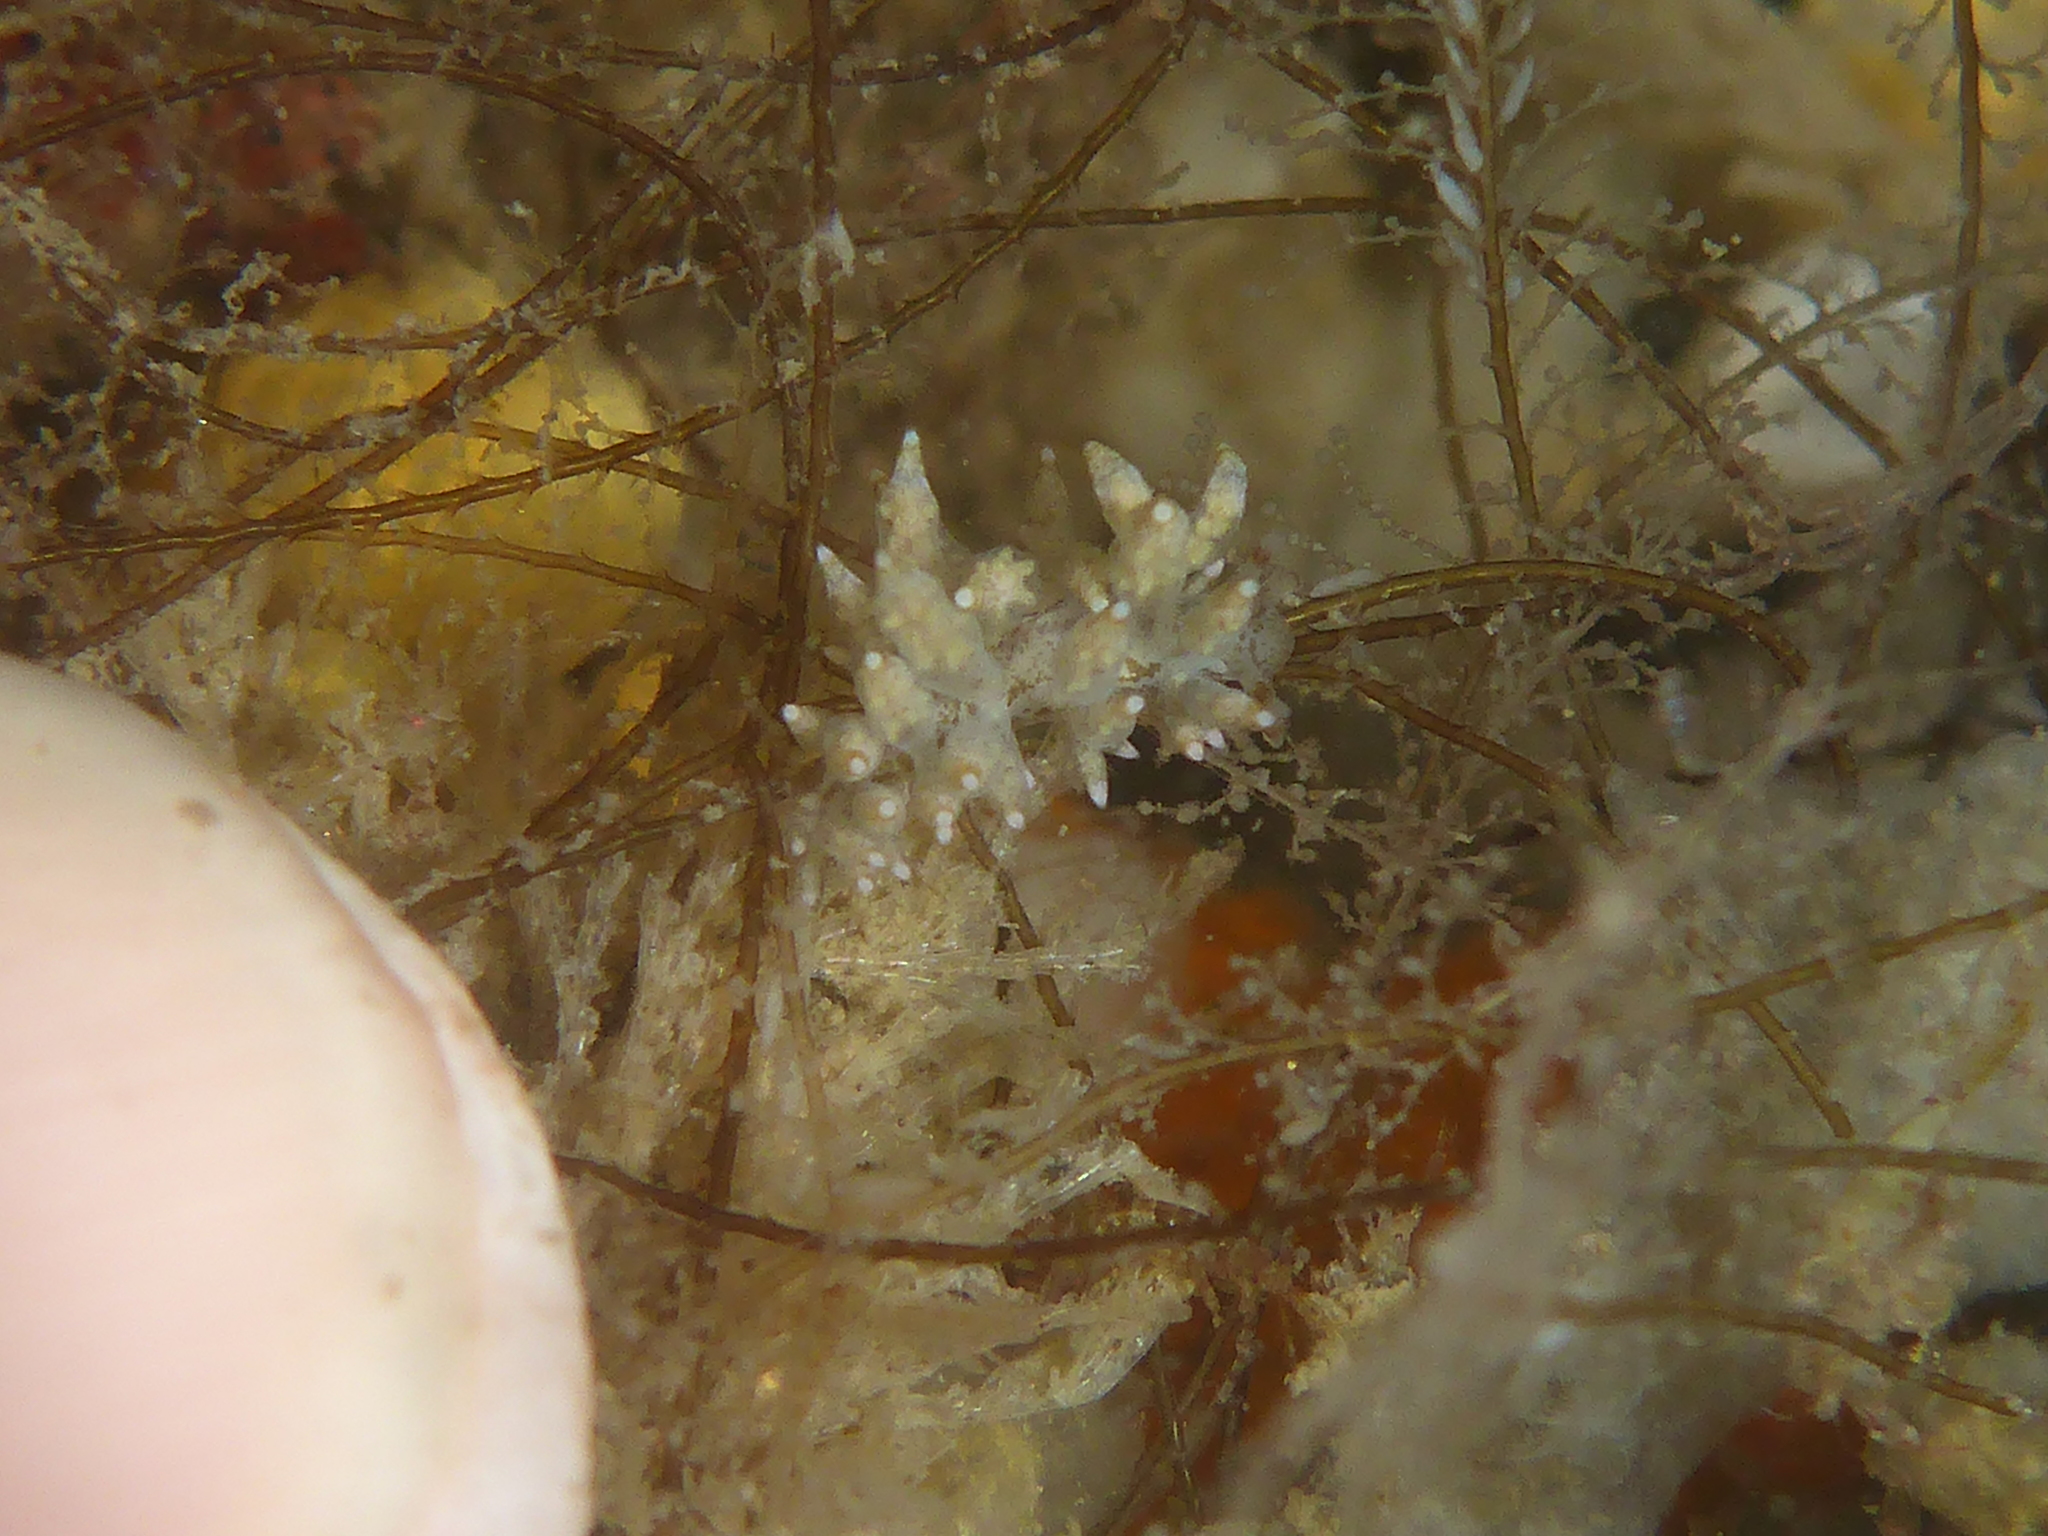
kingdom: Animalia
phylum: Mollusca
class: Gastropoda
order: Nudibranchia
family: Eubranchidae
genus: Eubranchus
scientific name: Eubranchus rustyus
